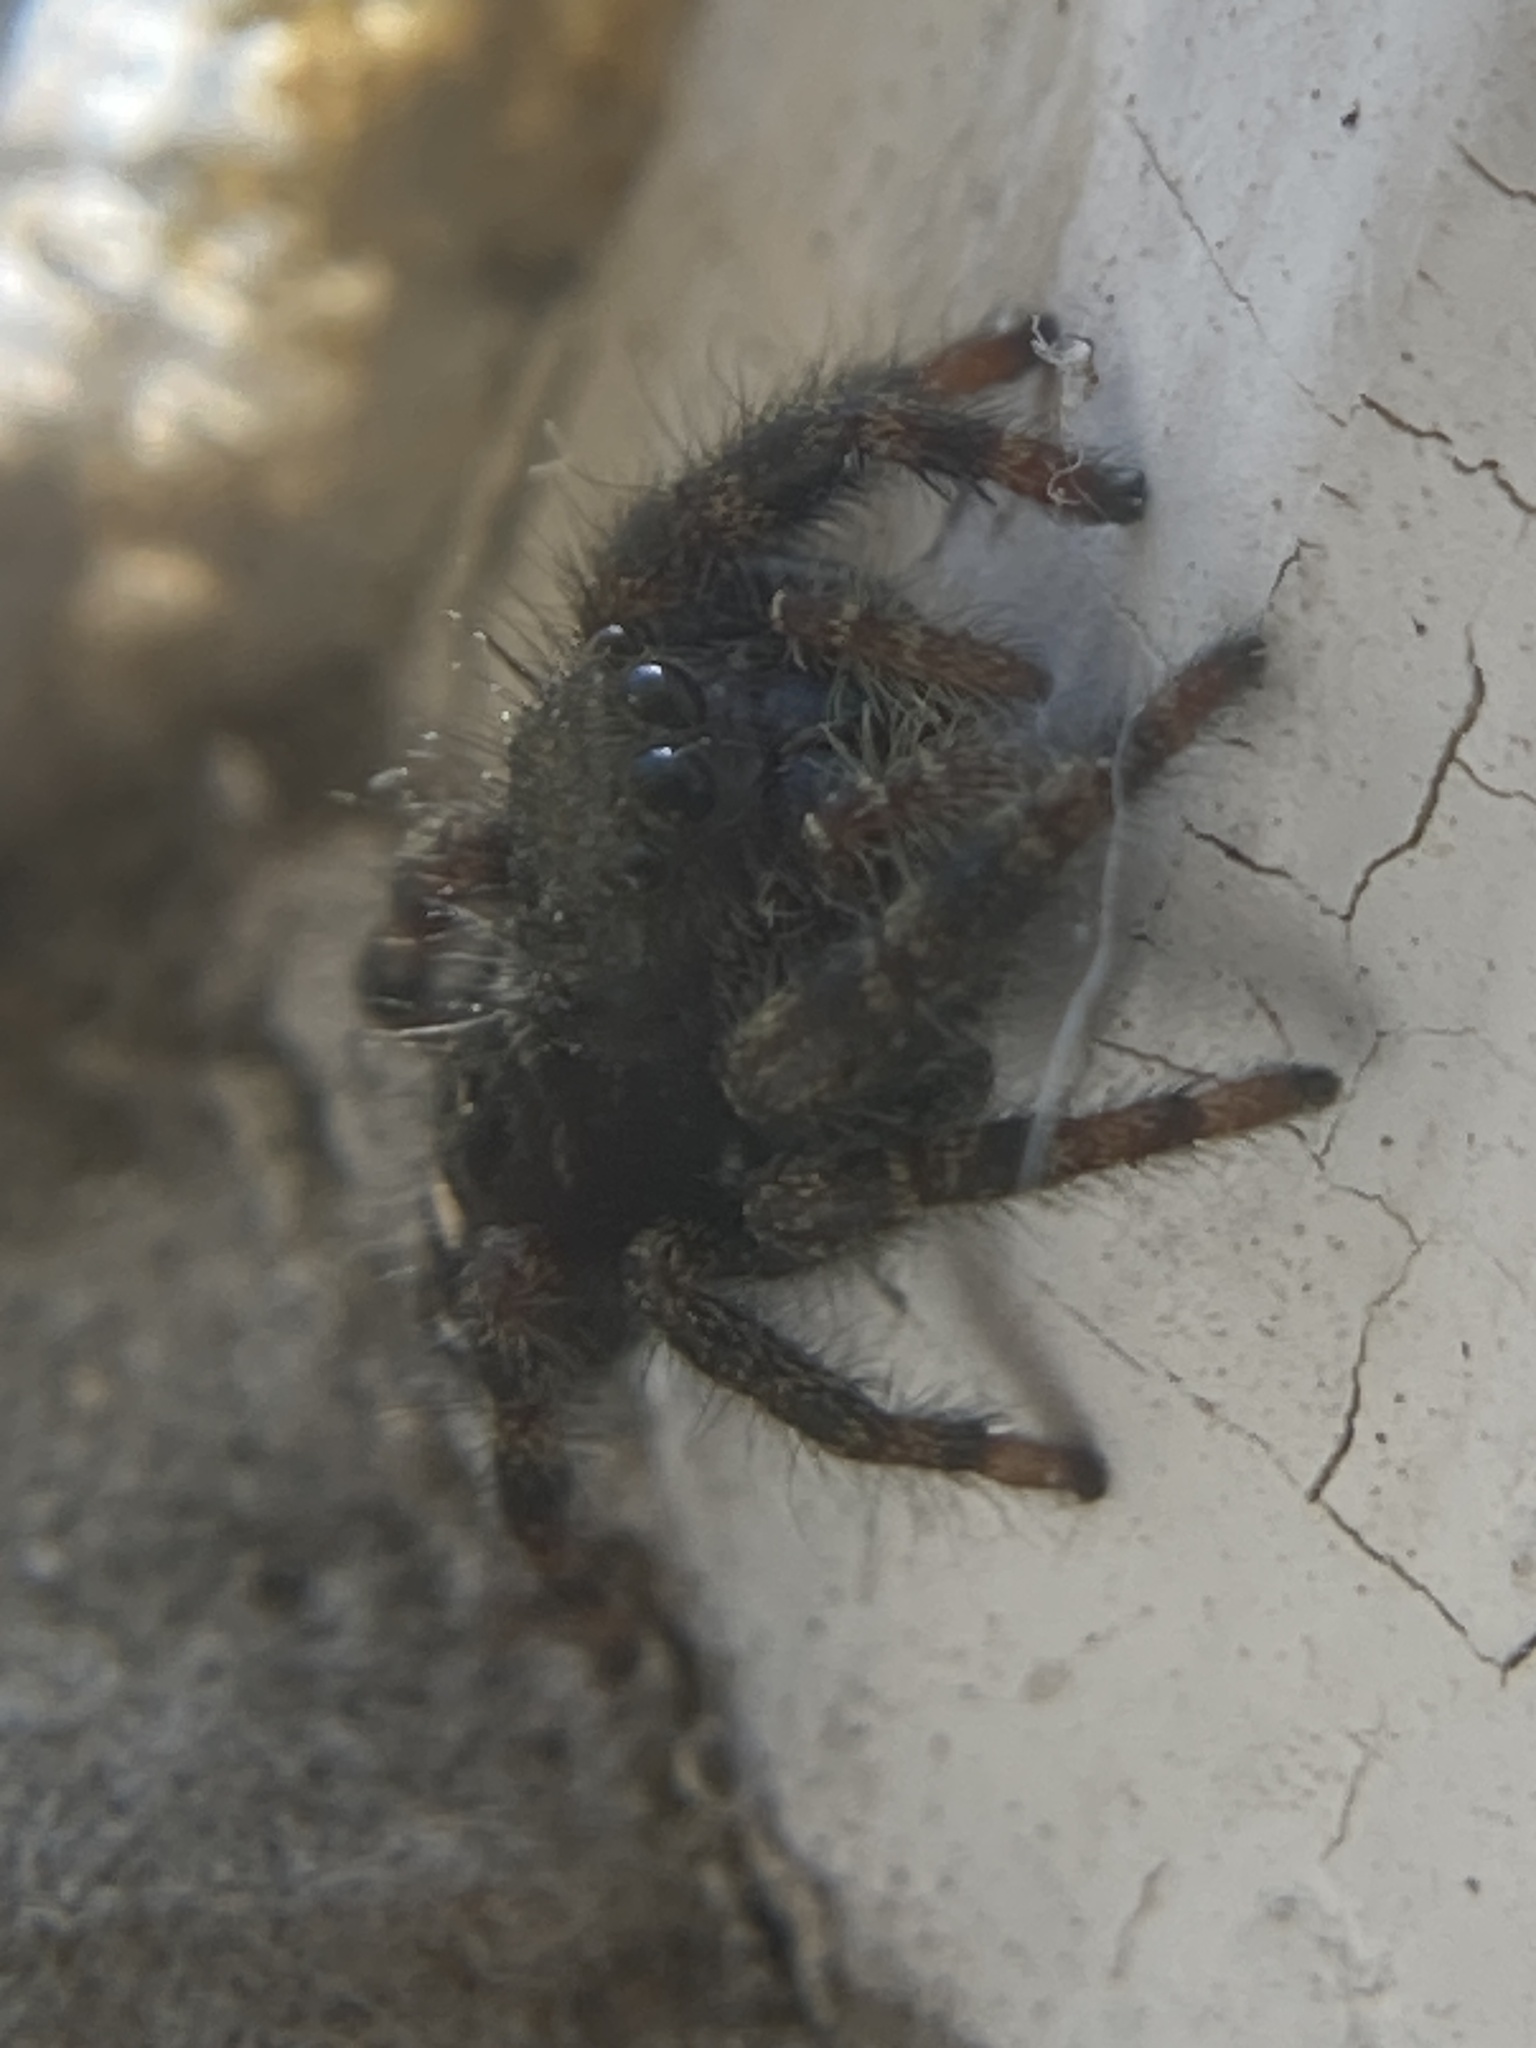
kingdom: Animalia
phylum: Arthropoda
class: Arachnida
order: Araneae
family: Salticidae
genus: Phidippus
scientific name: Phidippus audax
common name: Bold jumper
